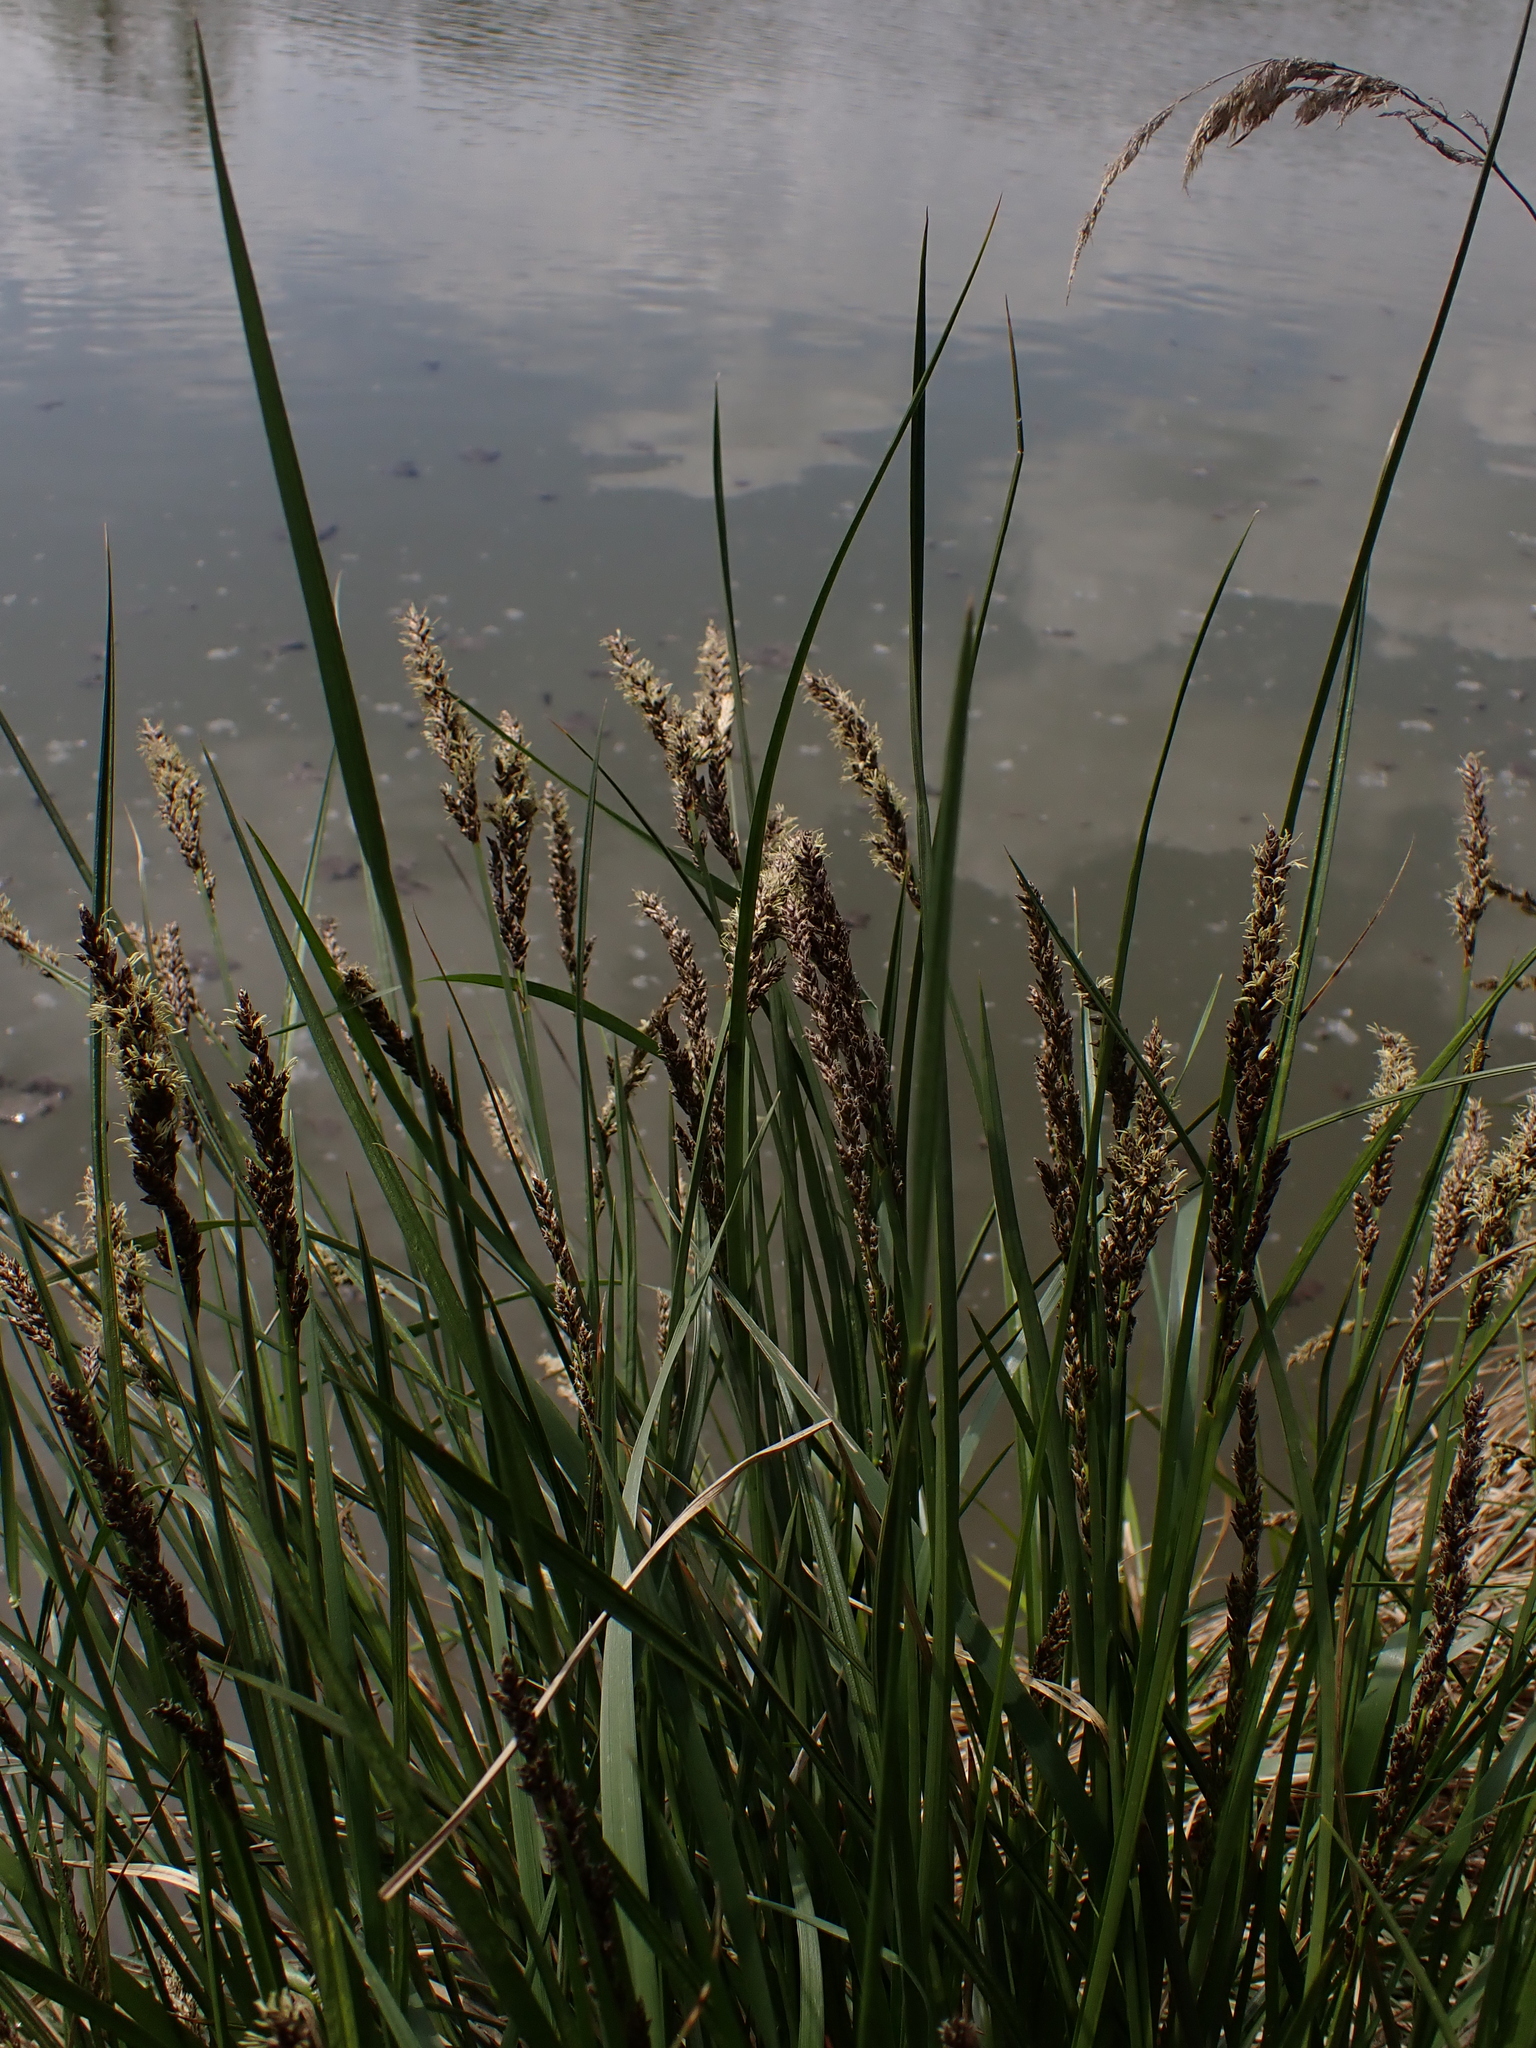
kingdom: Plantae
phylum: Tracheophyta
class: Liliopsida
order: Poales
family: Cyperaceae
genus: Carex
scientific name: Carex paniculata
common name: Greater tussock-sedge
